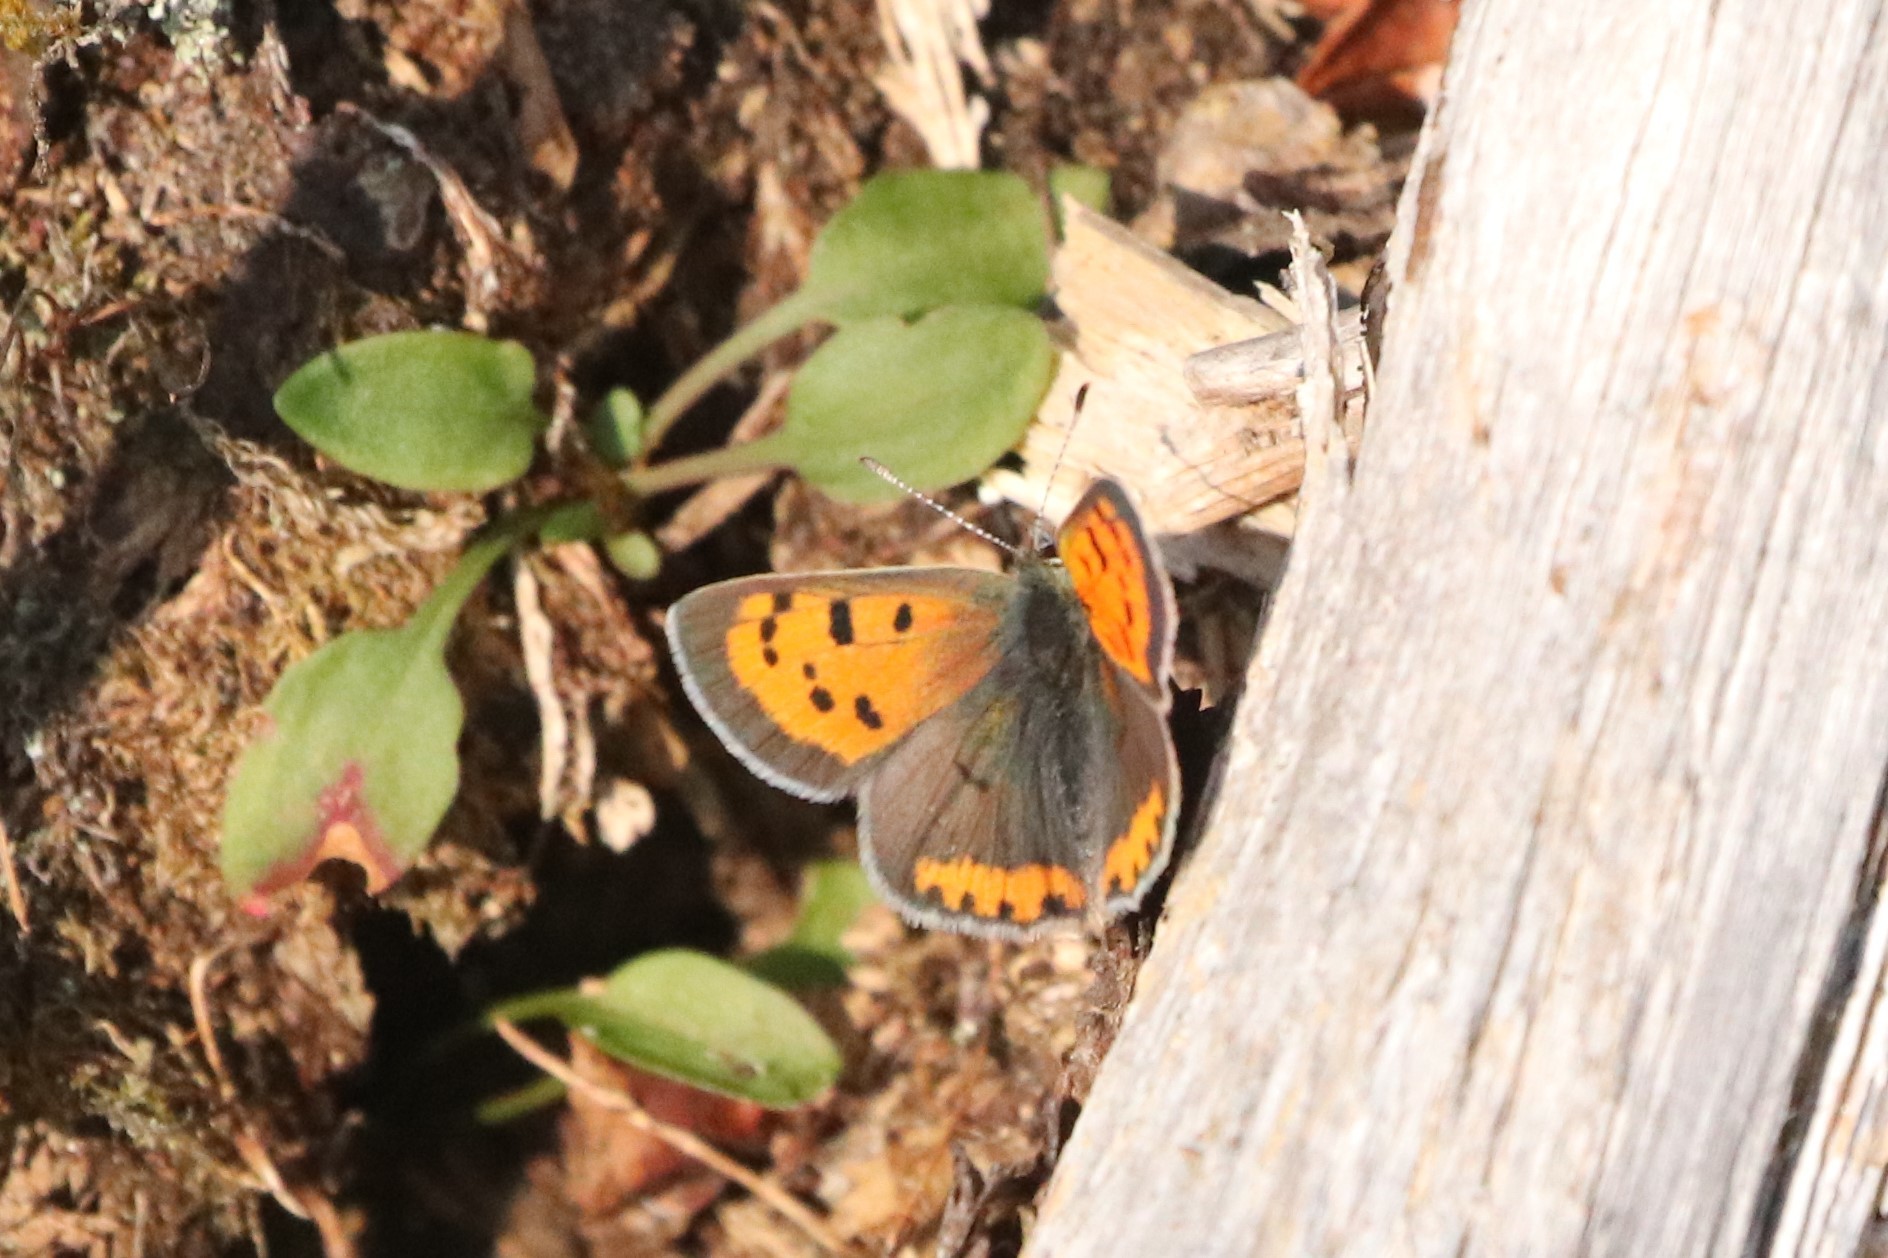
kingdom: Animalia
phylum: Arthropoda
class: Insecta
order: Lepidoptera
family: Lycaenidae
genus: Lycaena
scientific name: Lycaena hypophlaeas
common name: American copper
